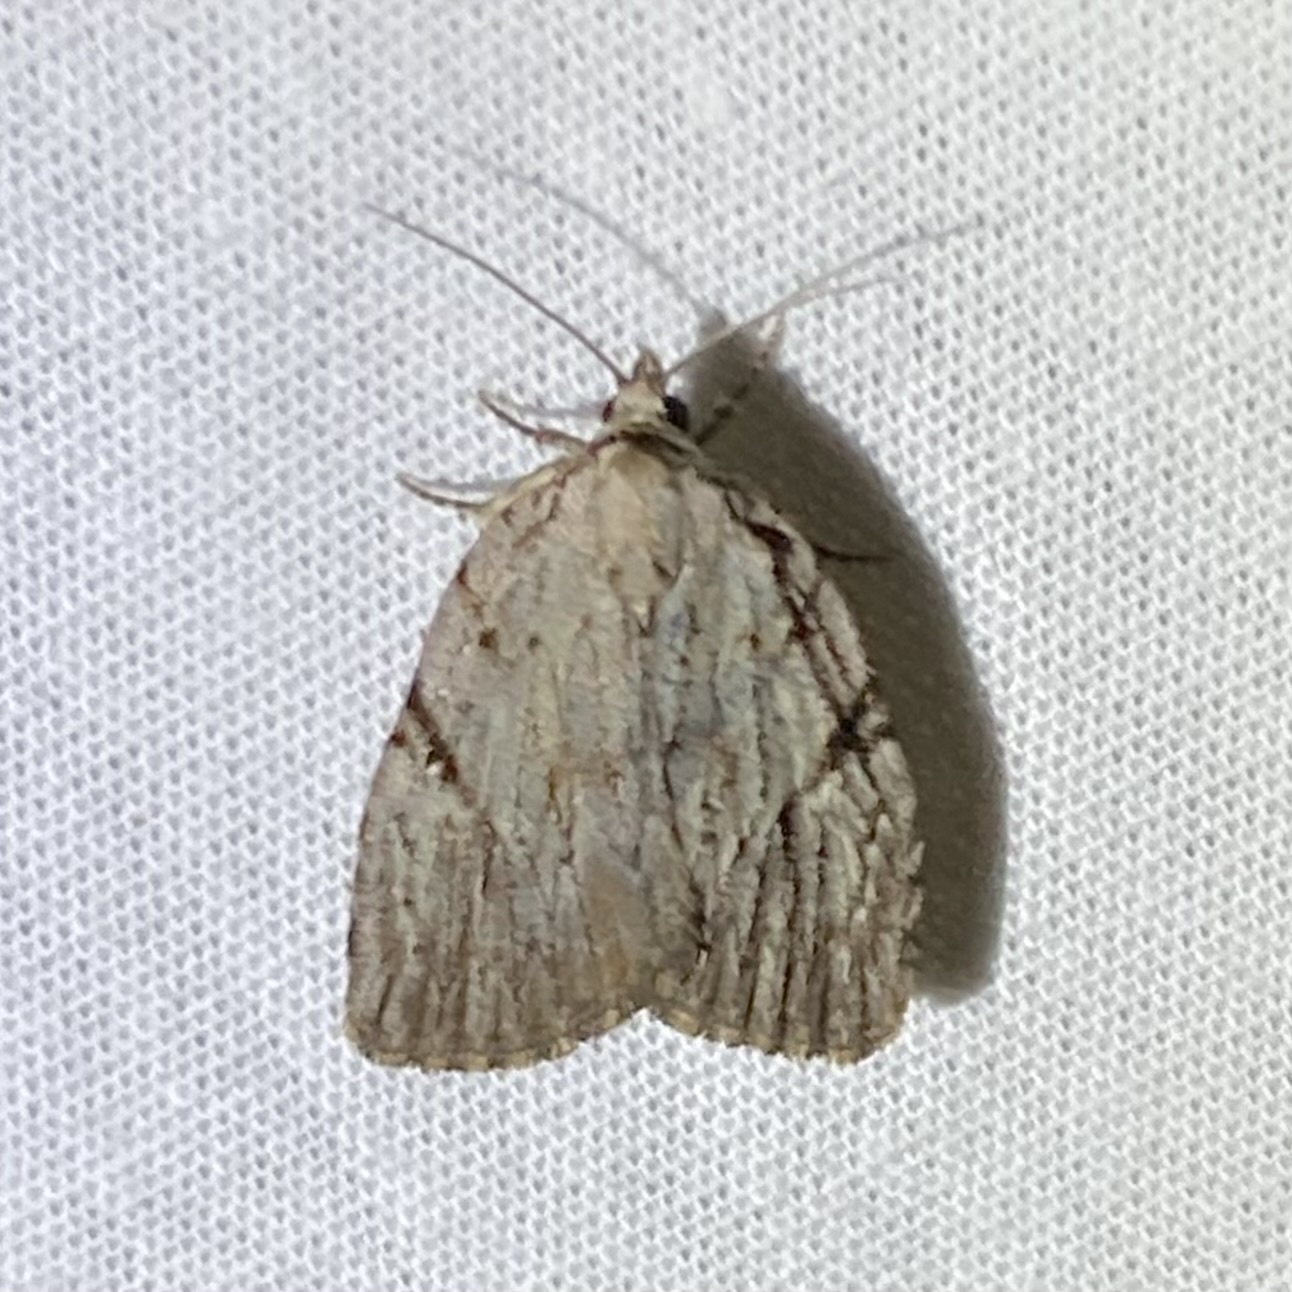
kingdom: Animalia
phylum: Arthropoda
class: Insecta
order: Lepidoptera
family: Noctuidae
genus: Balsa
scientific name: Balsa tristrigella
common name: Three-lined balsa moth
